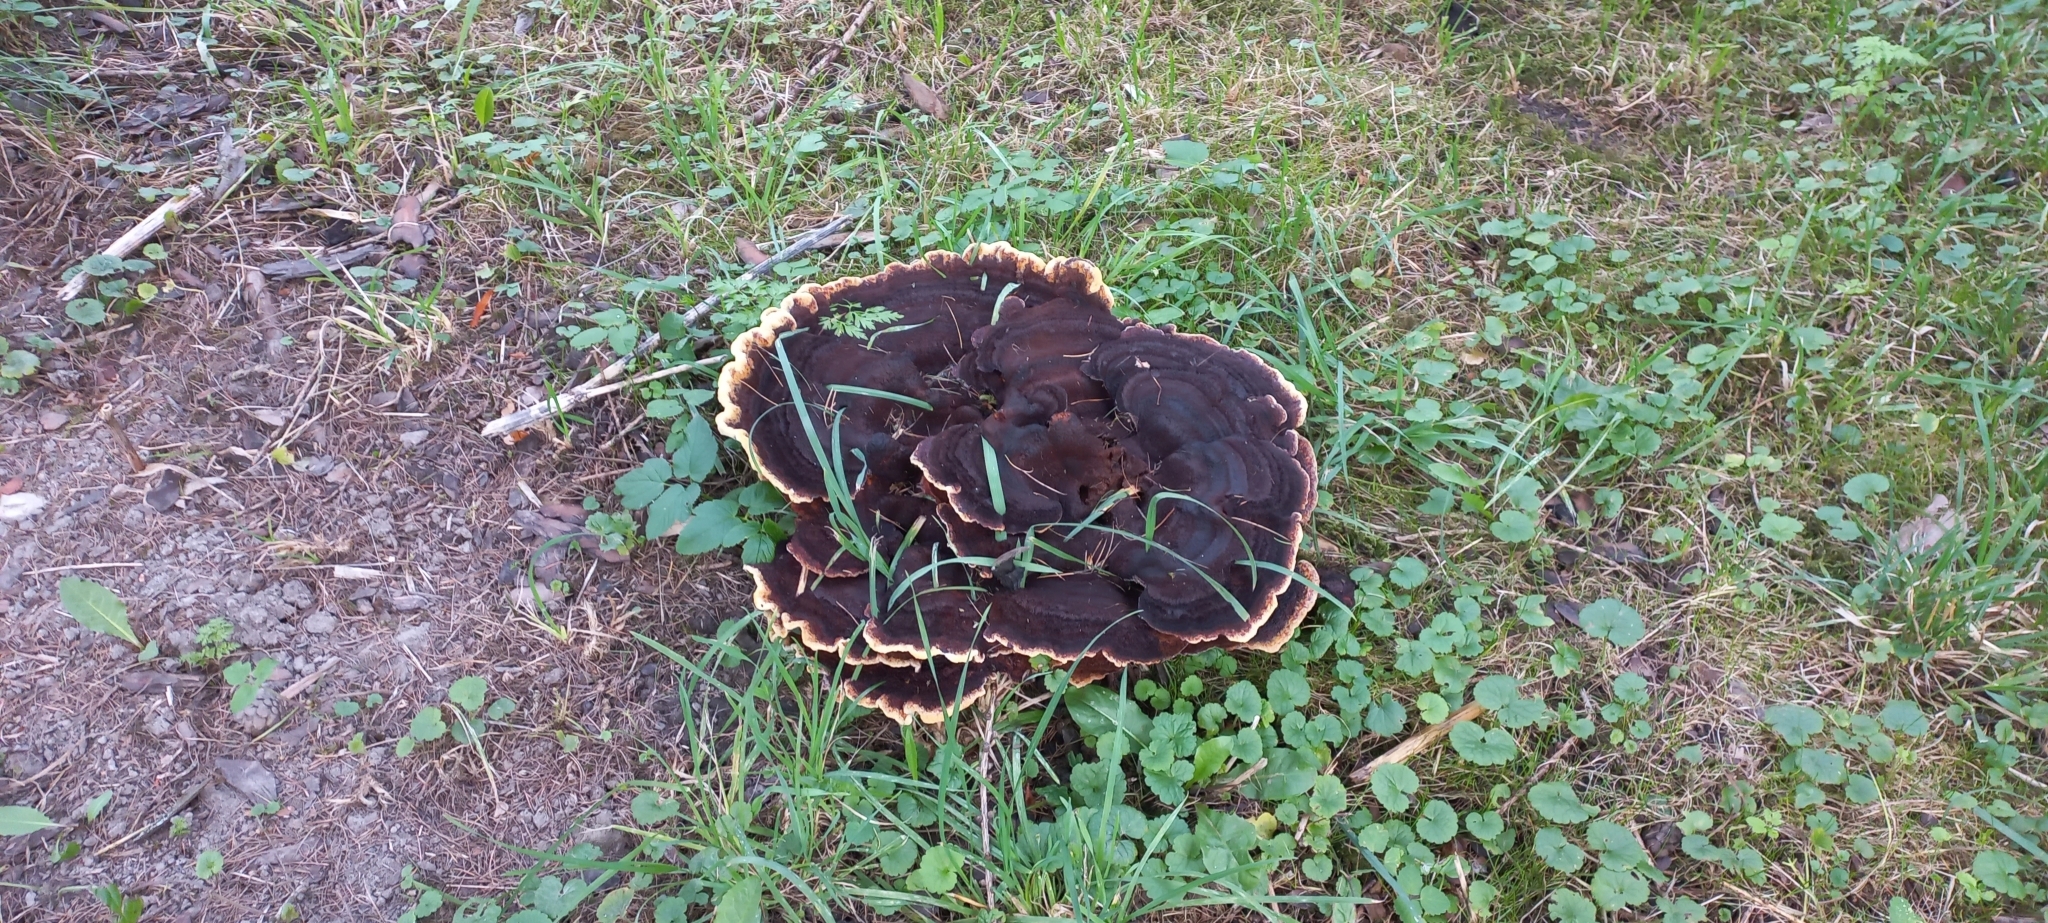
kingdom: Fungi
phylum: Basidiomycota
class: Agaricomycetes
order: Polyporales
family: Laetiporaceae
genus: Phaeolus
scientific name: Phaeolus schweinitzii
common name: Dyer's mazegill
